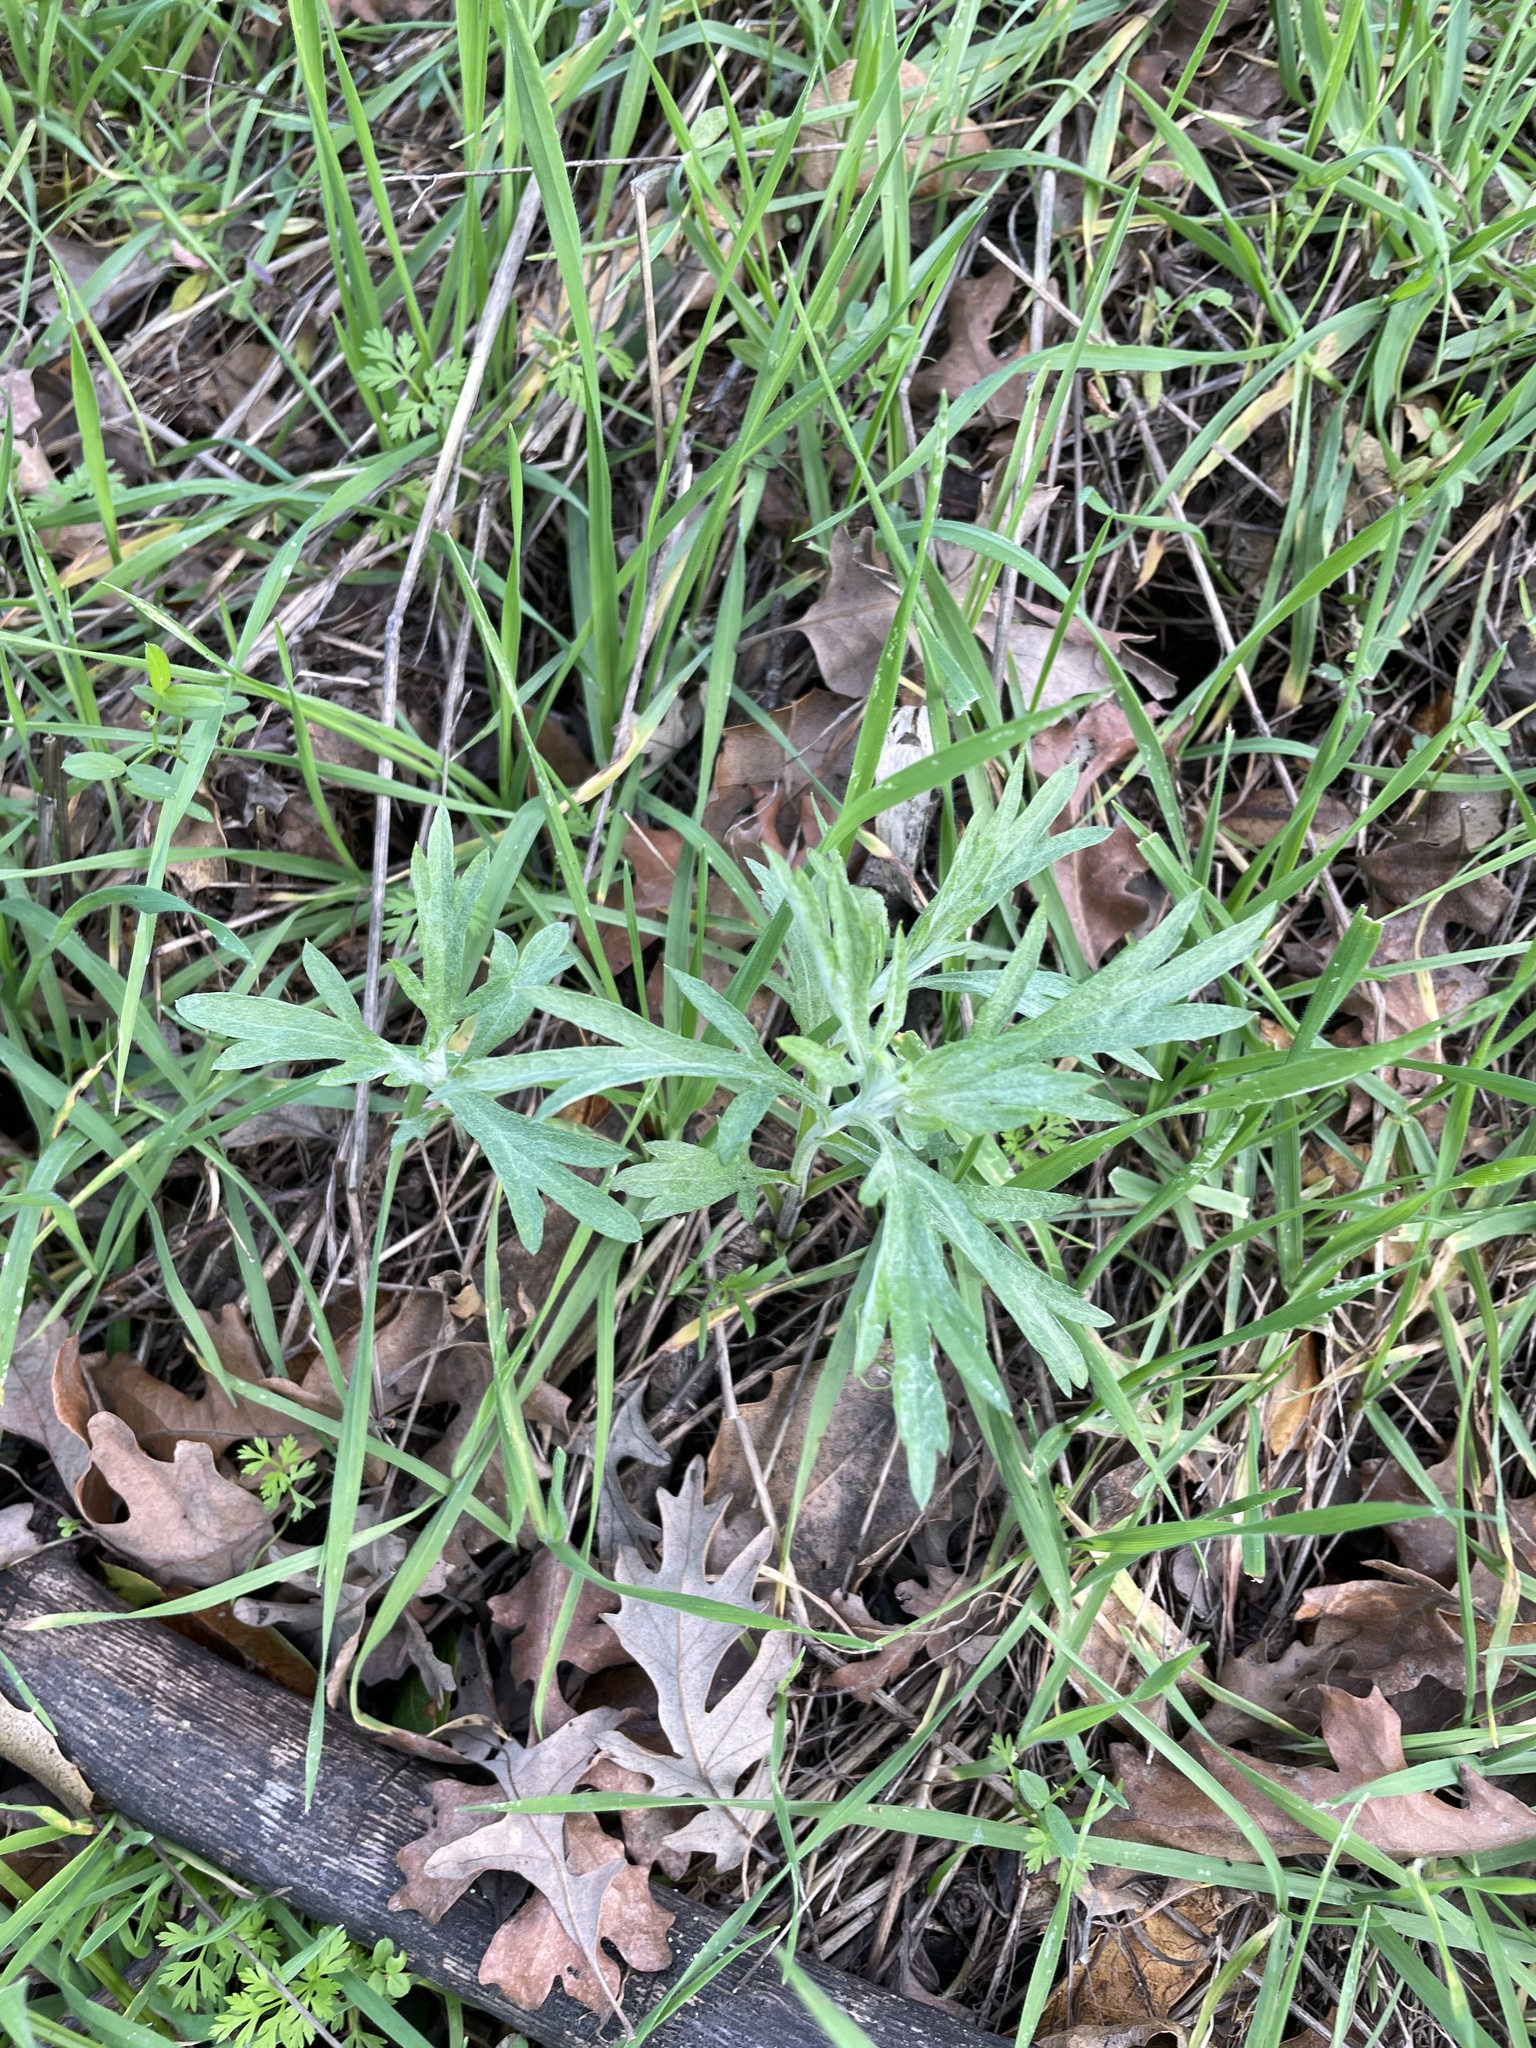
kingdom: Plantae
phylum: Tracheophyta
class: Magnoliopsida
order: Asterales
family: Asteraceae
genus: Artemisia
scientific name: Artemisia douglasiana
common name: Northwest mugwort
